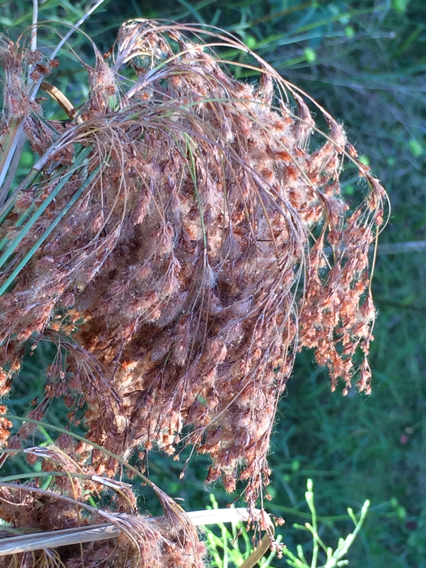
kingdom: Plantae
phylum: Tracheophyta
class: Liliopsida
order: Poales
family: Cyperaceae
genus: Scirpus
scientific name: Scirpus cyperinus
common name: Black-sheathed bulrush
